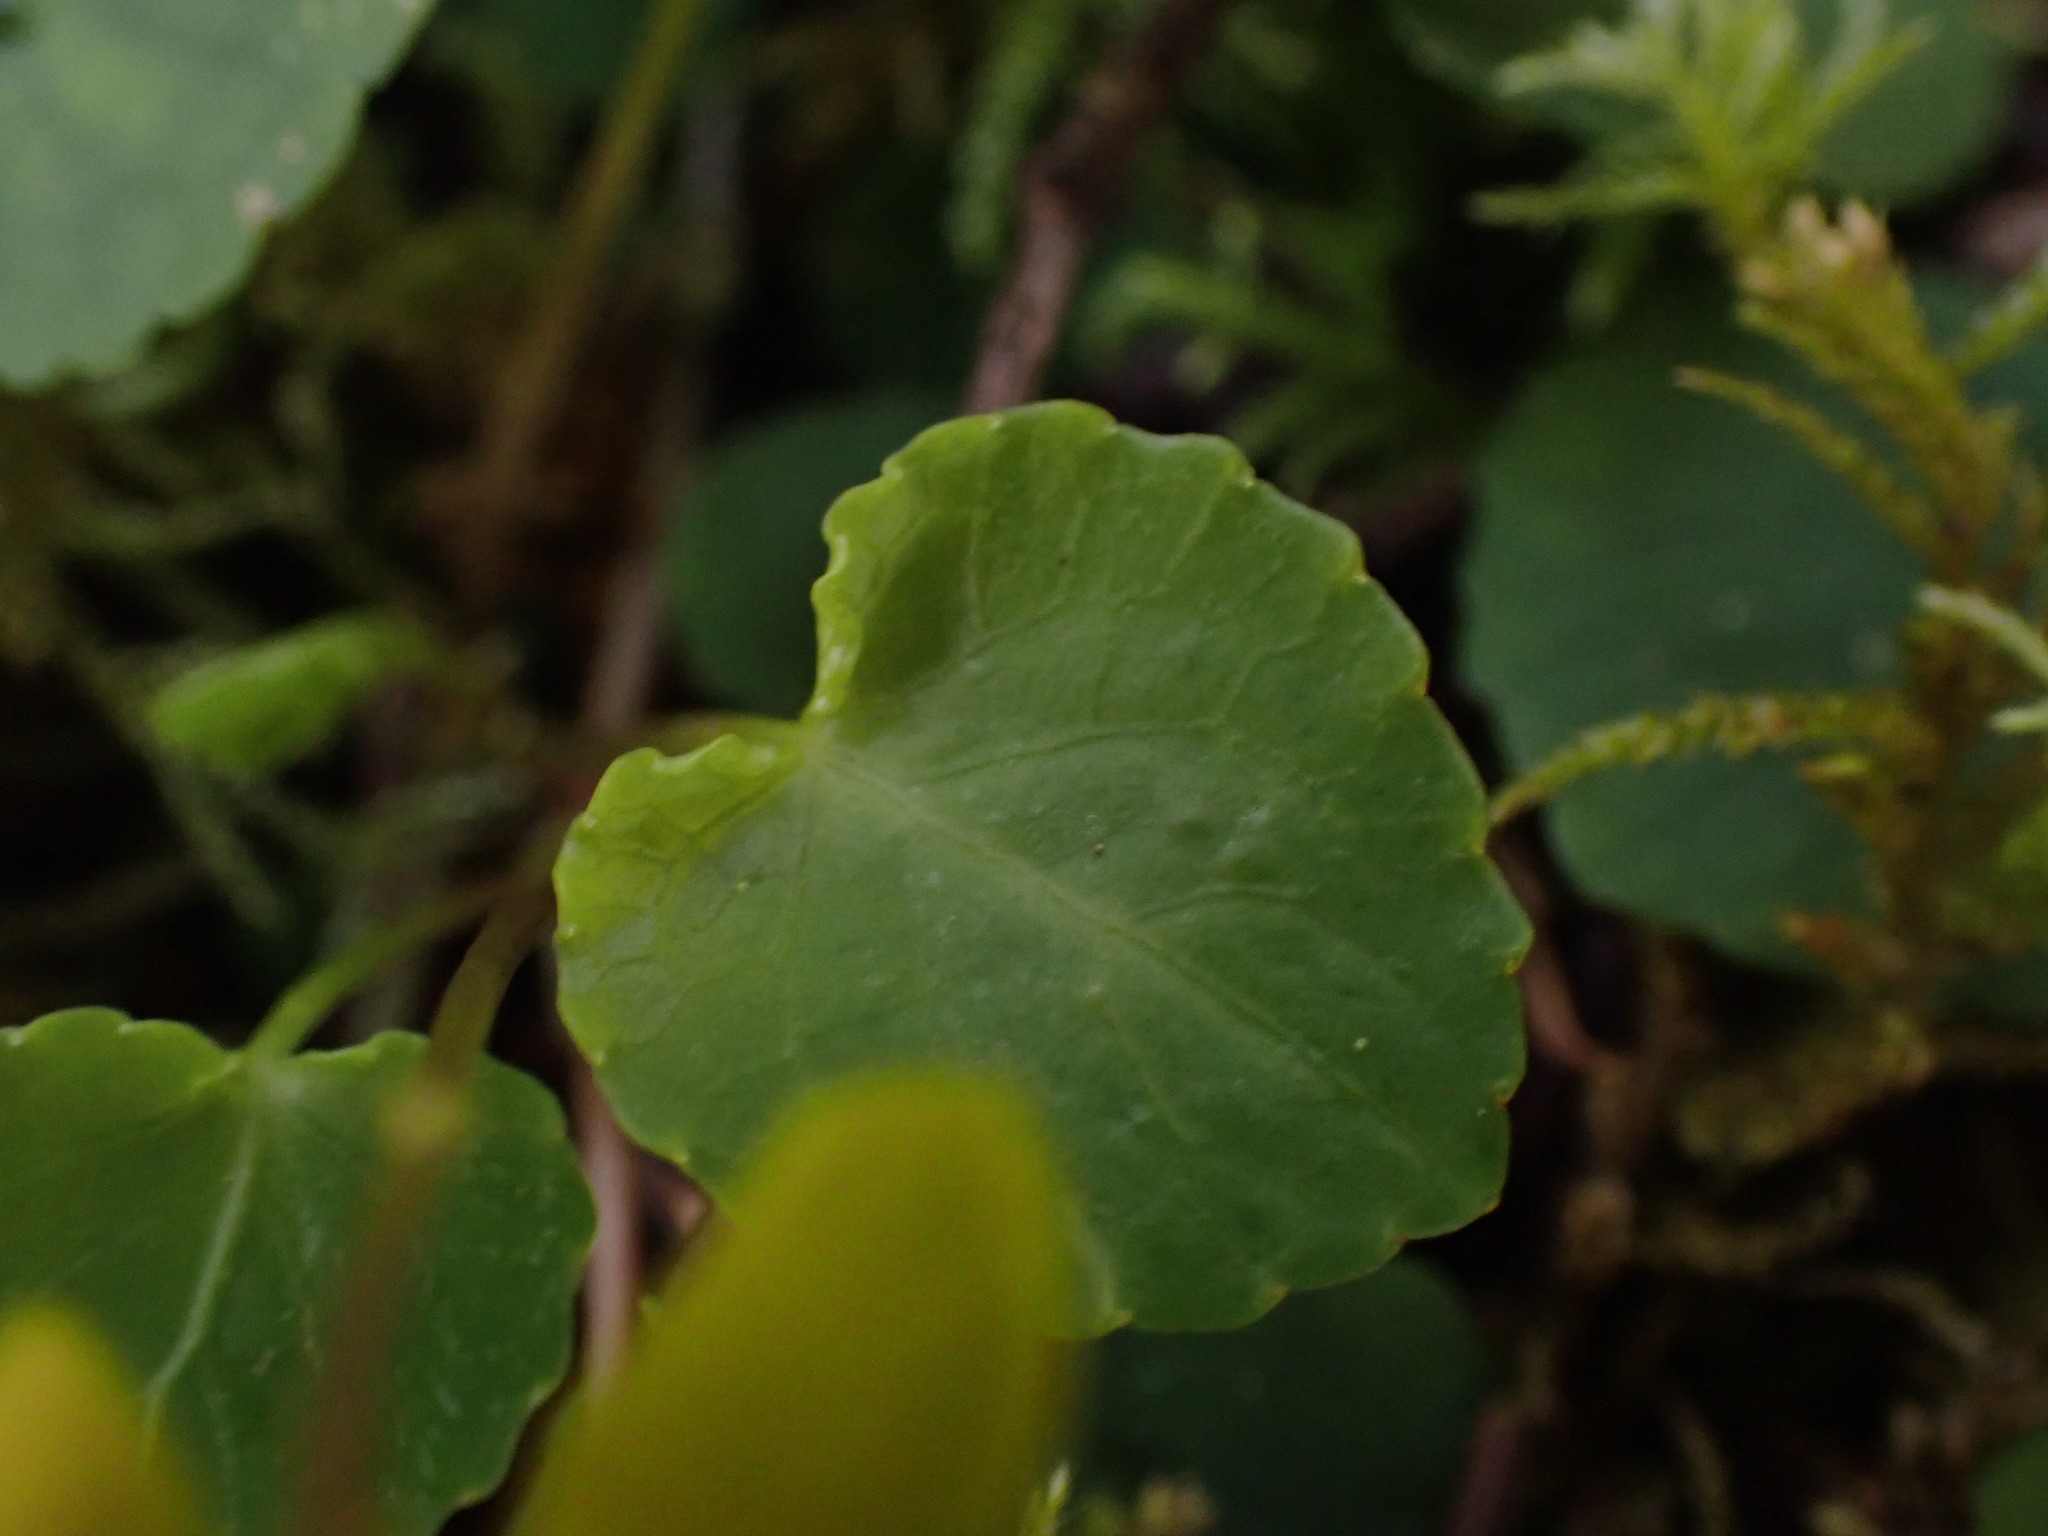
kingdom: Plantae
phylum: Tracheophyta
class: Magnoliopsida
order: Malpighiales
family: Violaceae
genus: Viola
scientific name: Viola orbiculata
